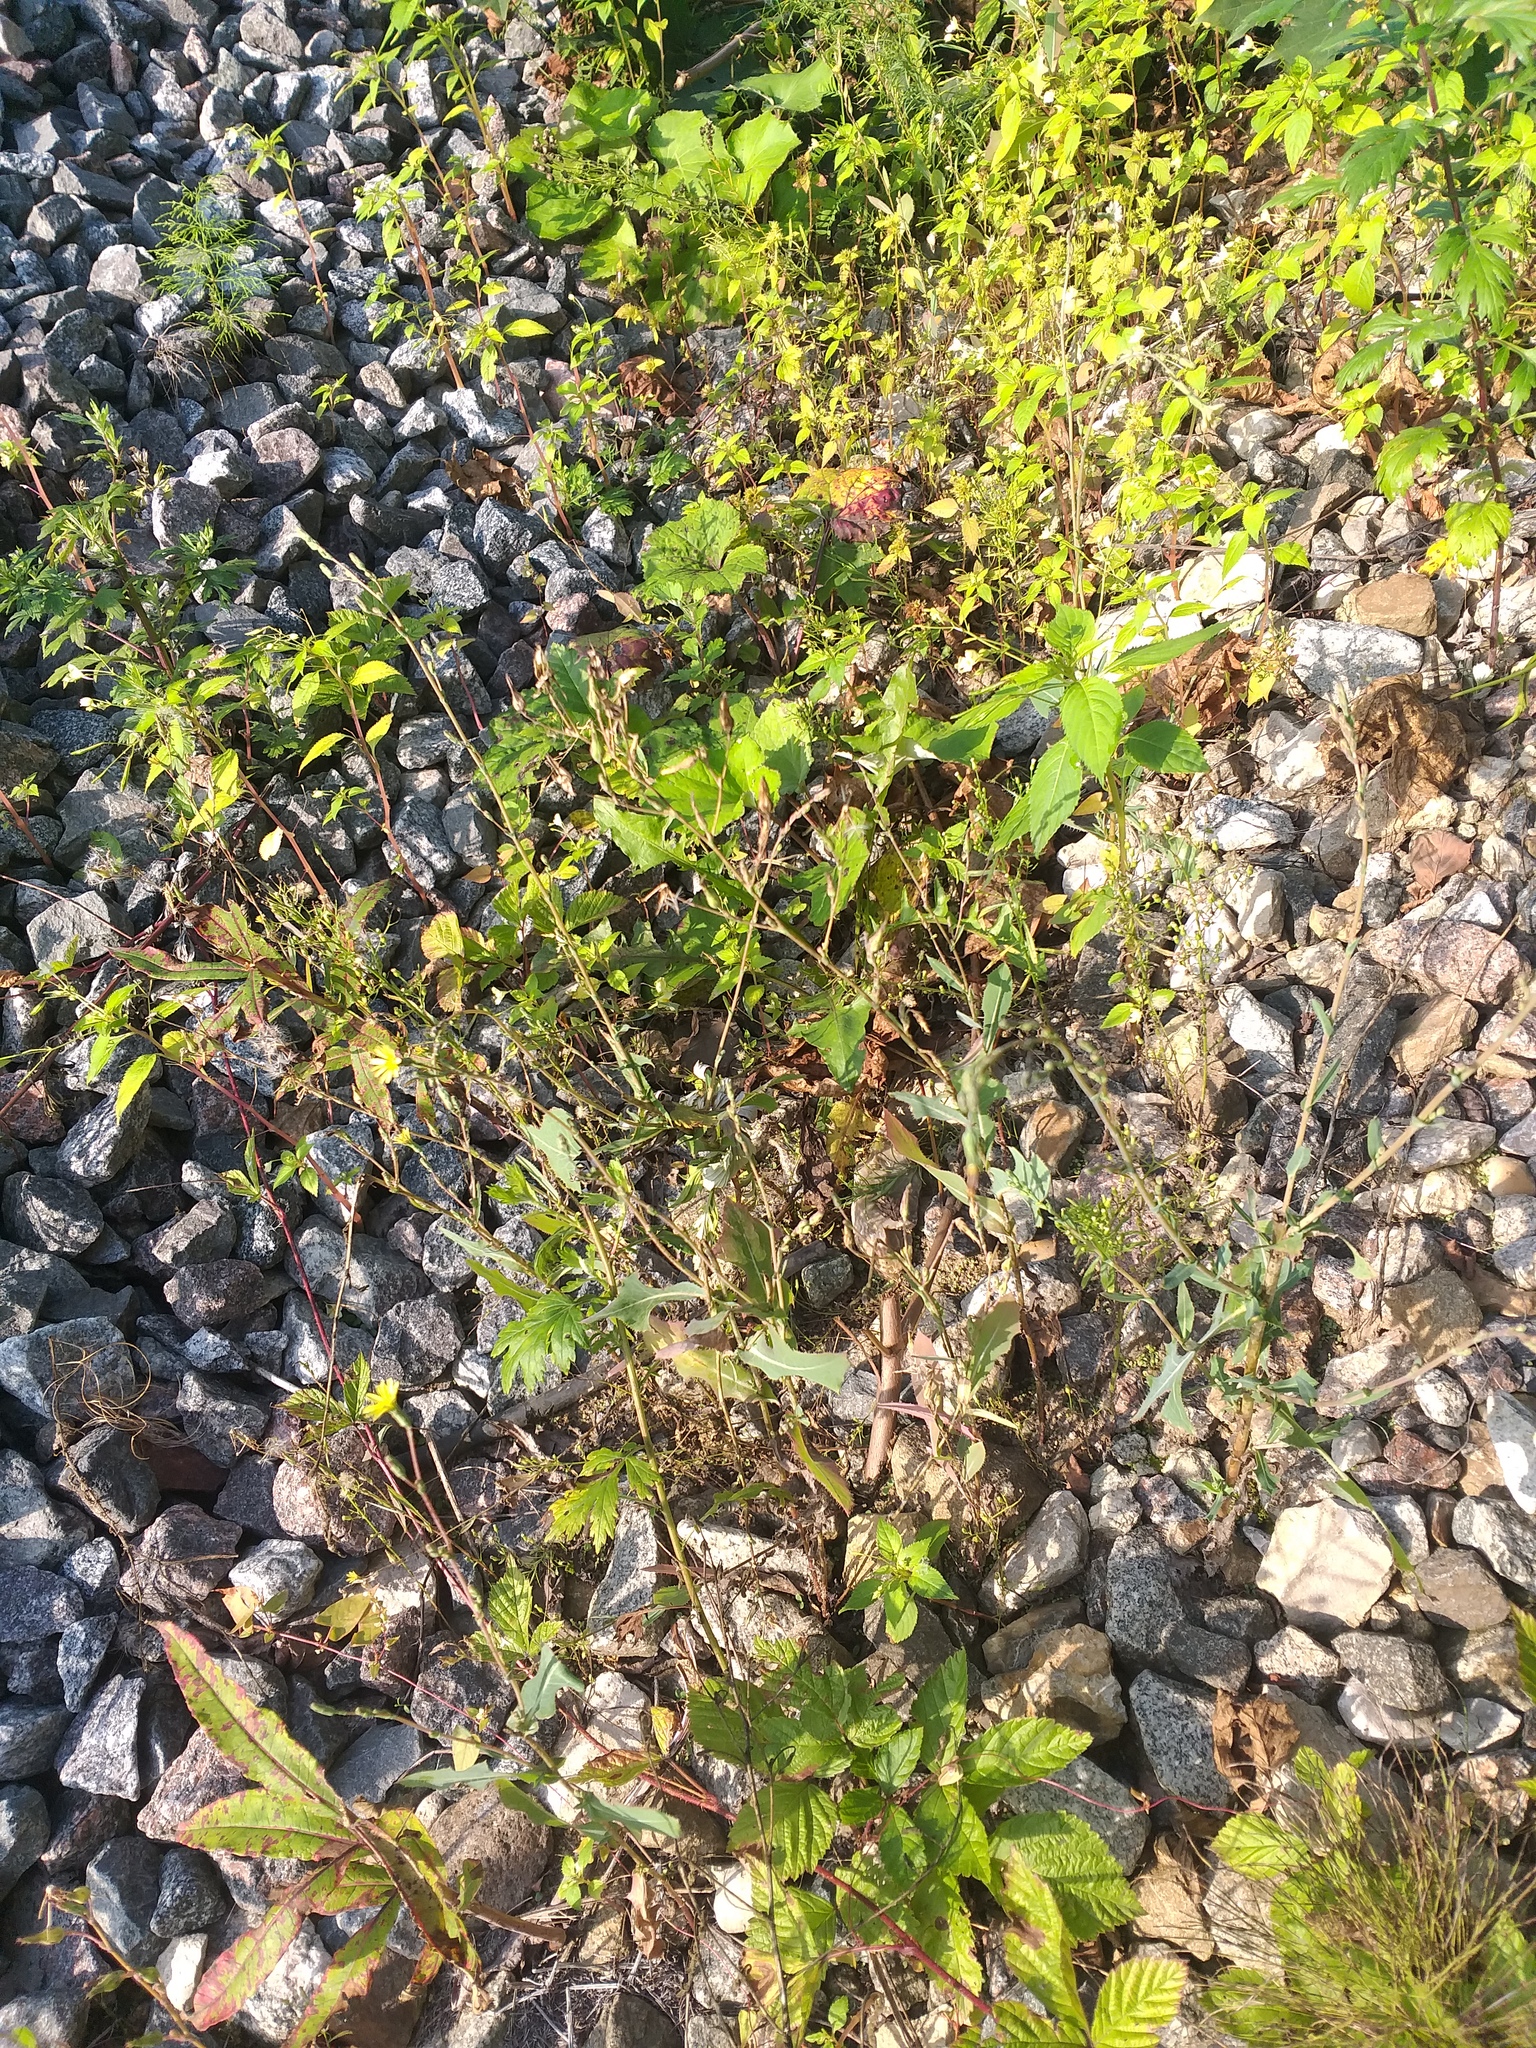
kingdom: Plantae
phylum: Tracheophyta
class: Magnoliopsida
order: Asterales
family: Asteraceae
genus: Lactuca
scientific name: Lactuca serriola
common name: Prickly lettuce
